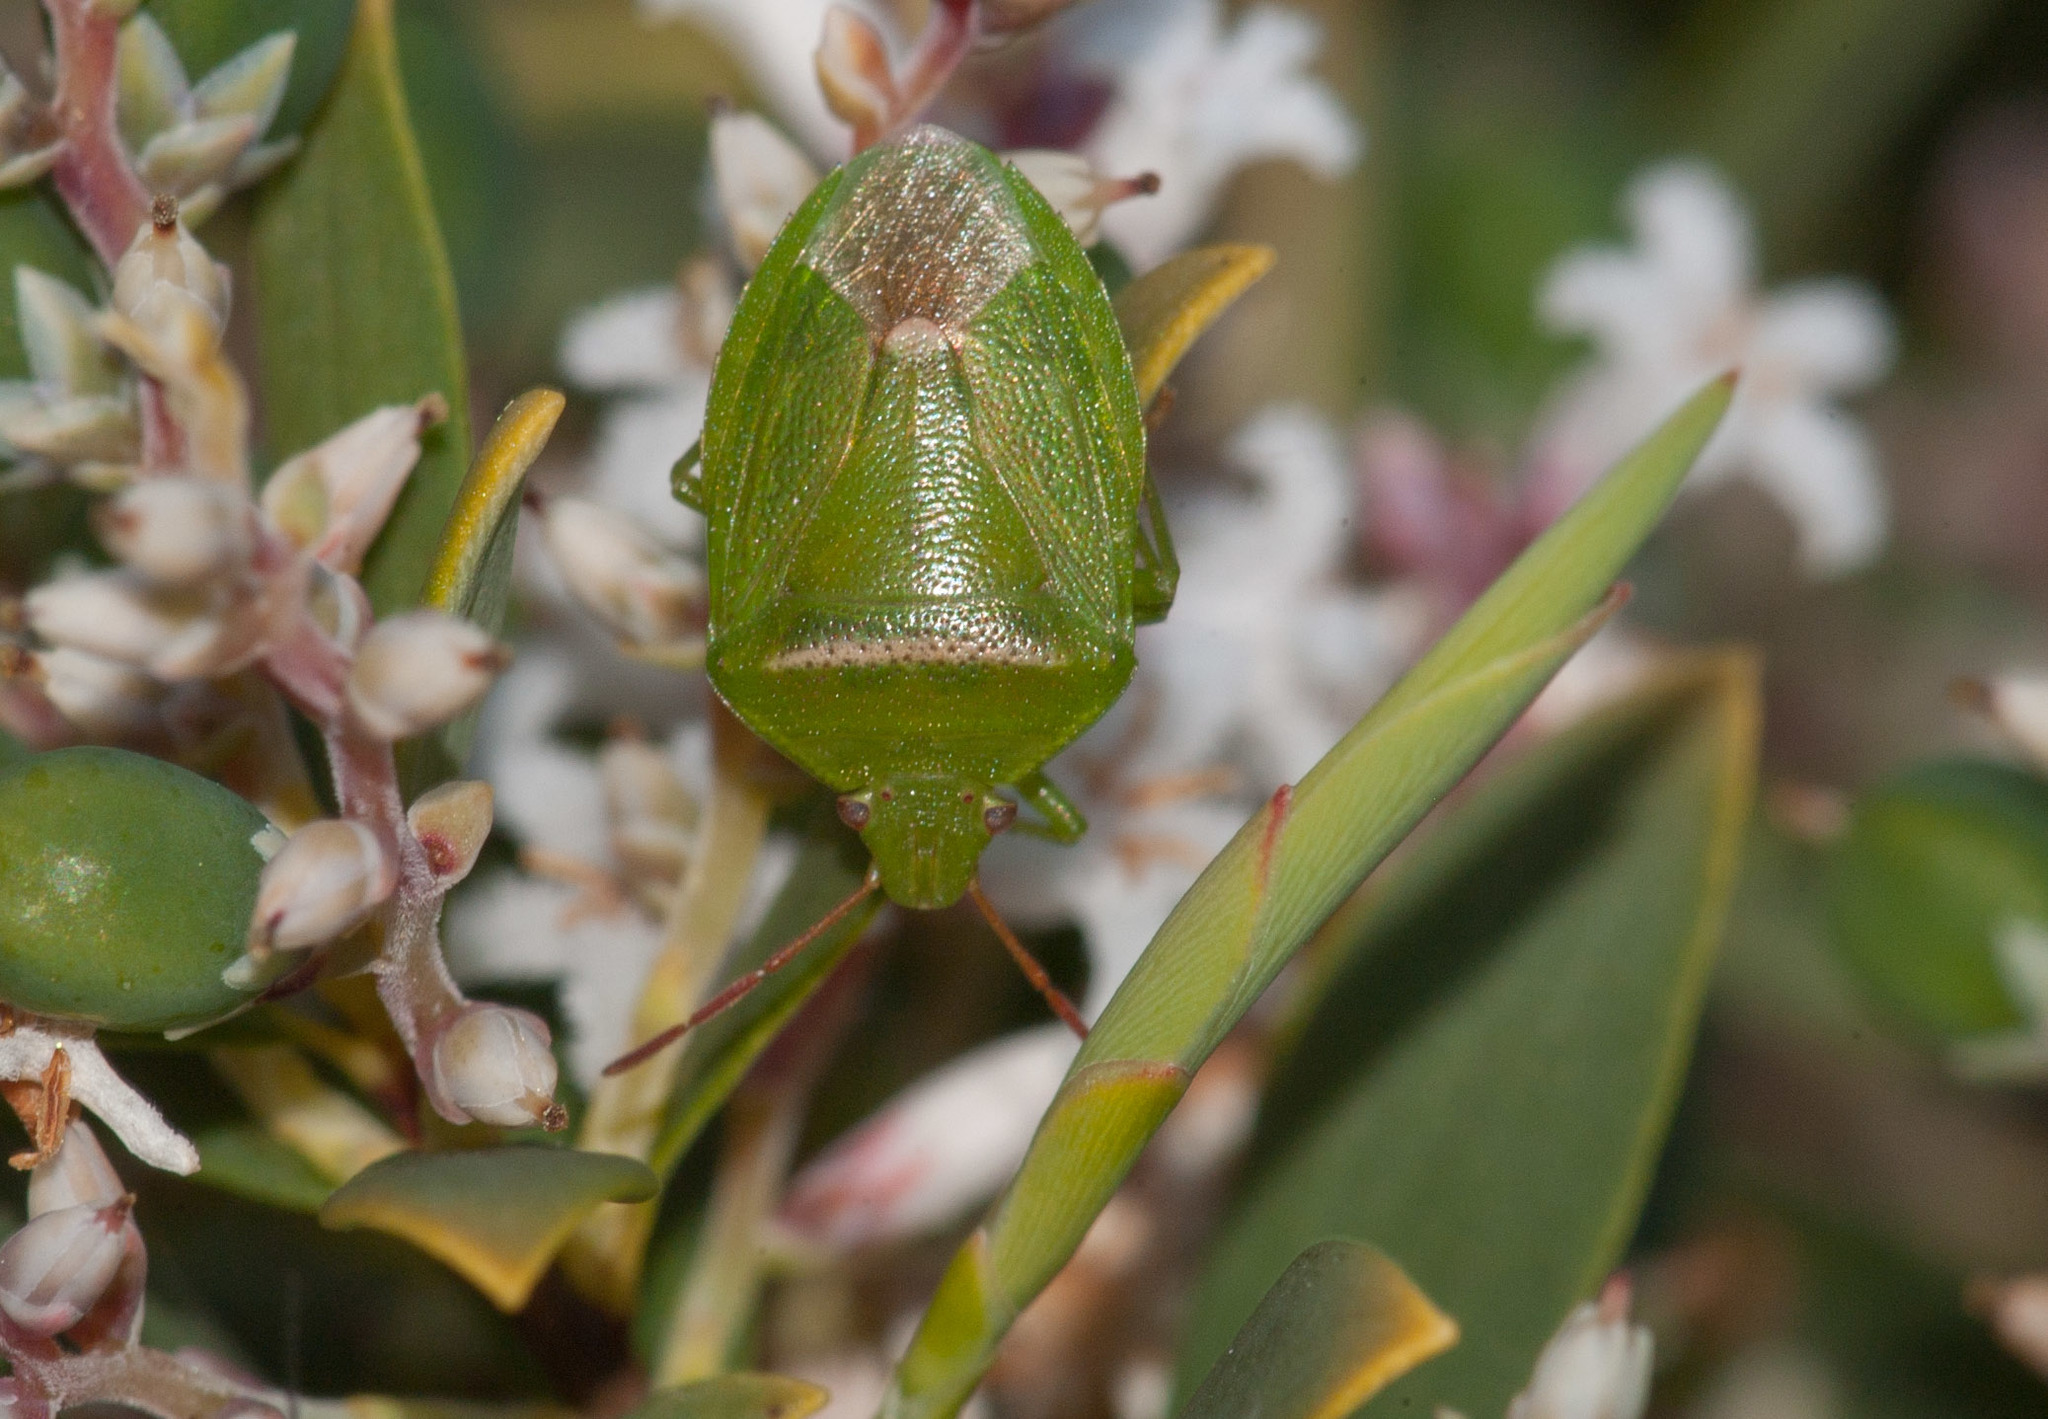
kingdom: Animalia
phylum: Arthropoda
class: Insecta
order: Hemiptera
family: Pentatomidae
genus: Ocirrhoe
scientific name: Ocirrhoe
